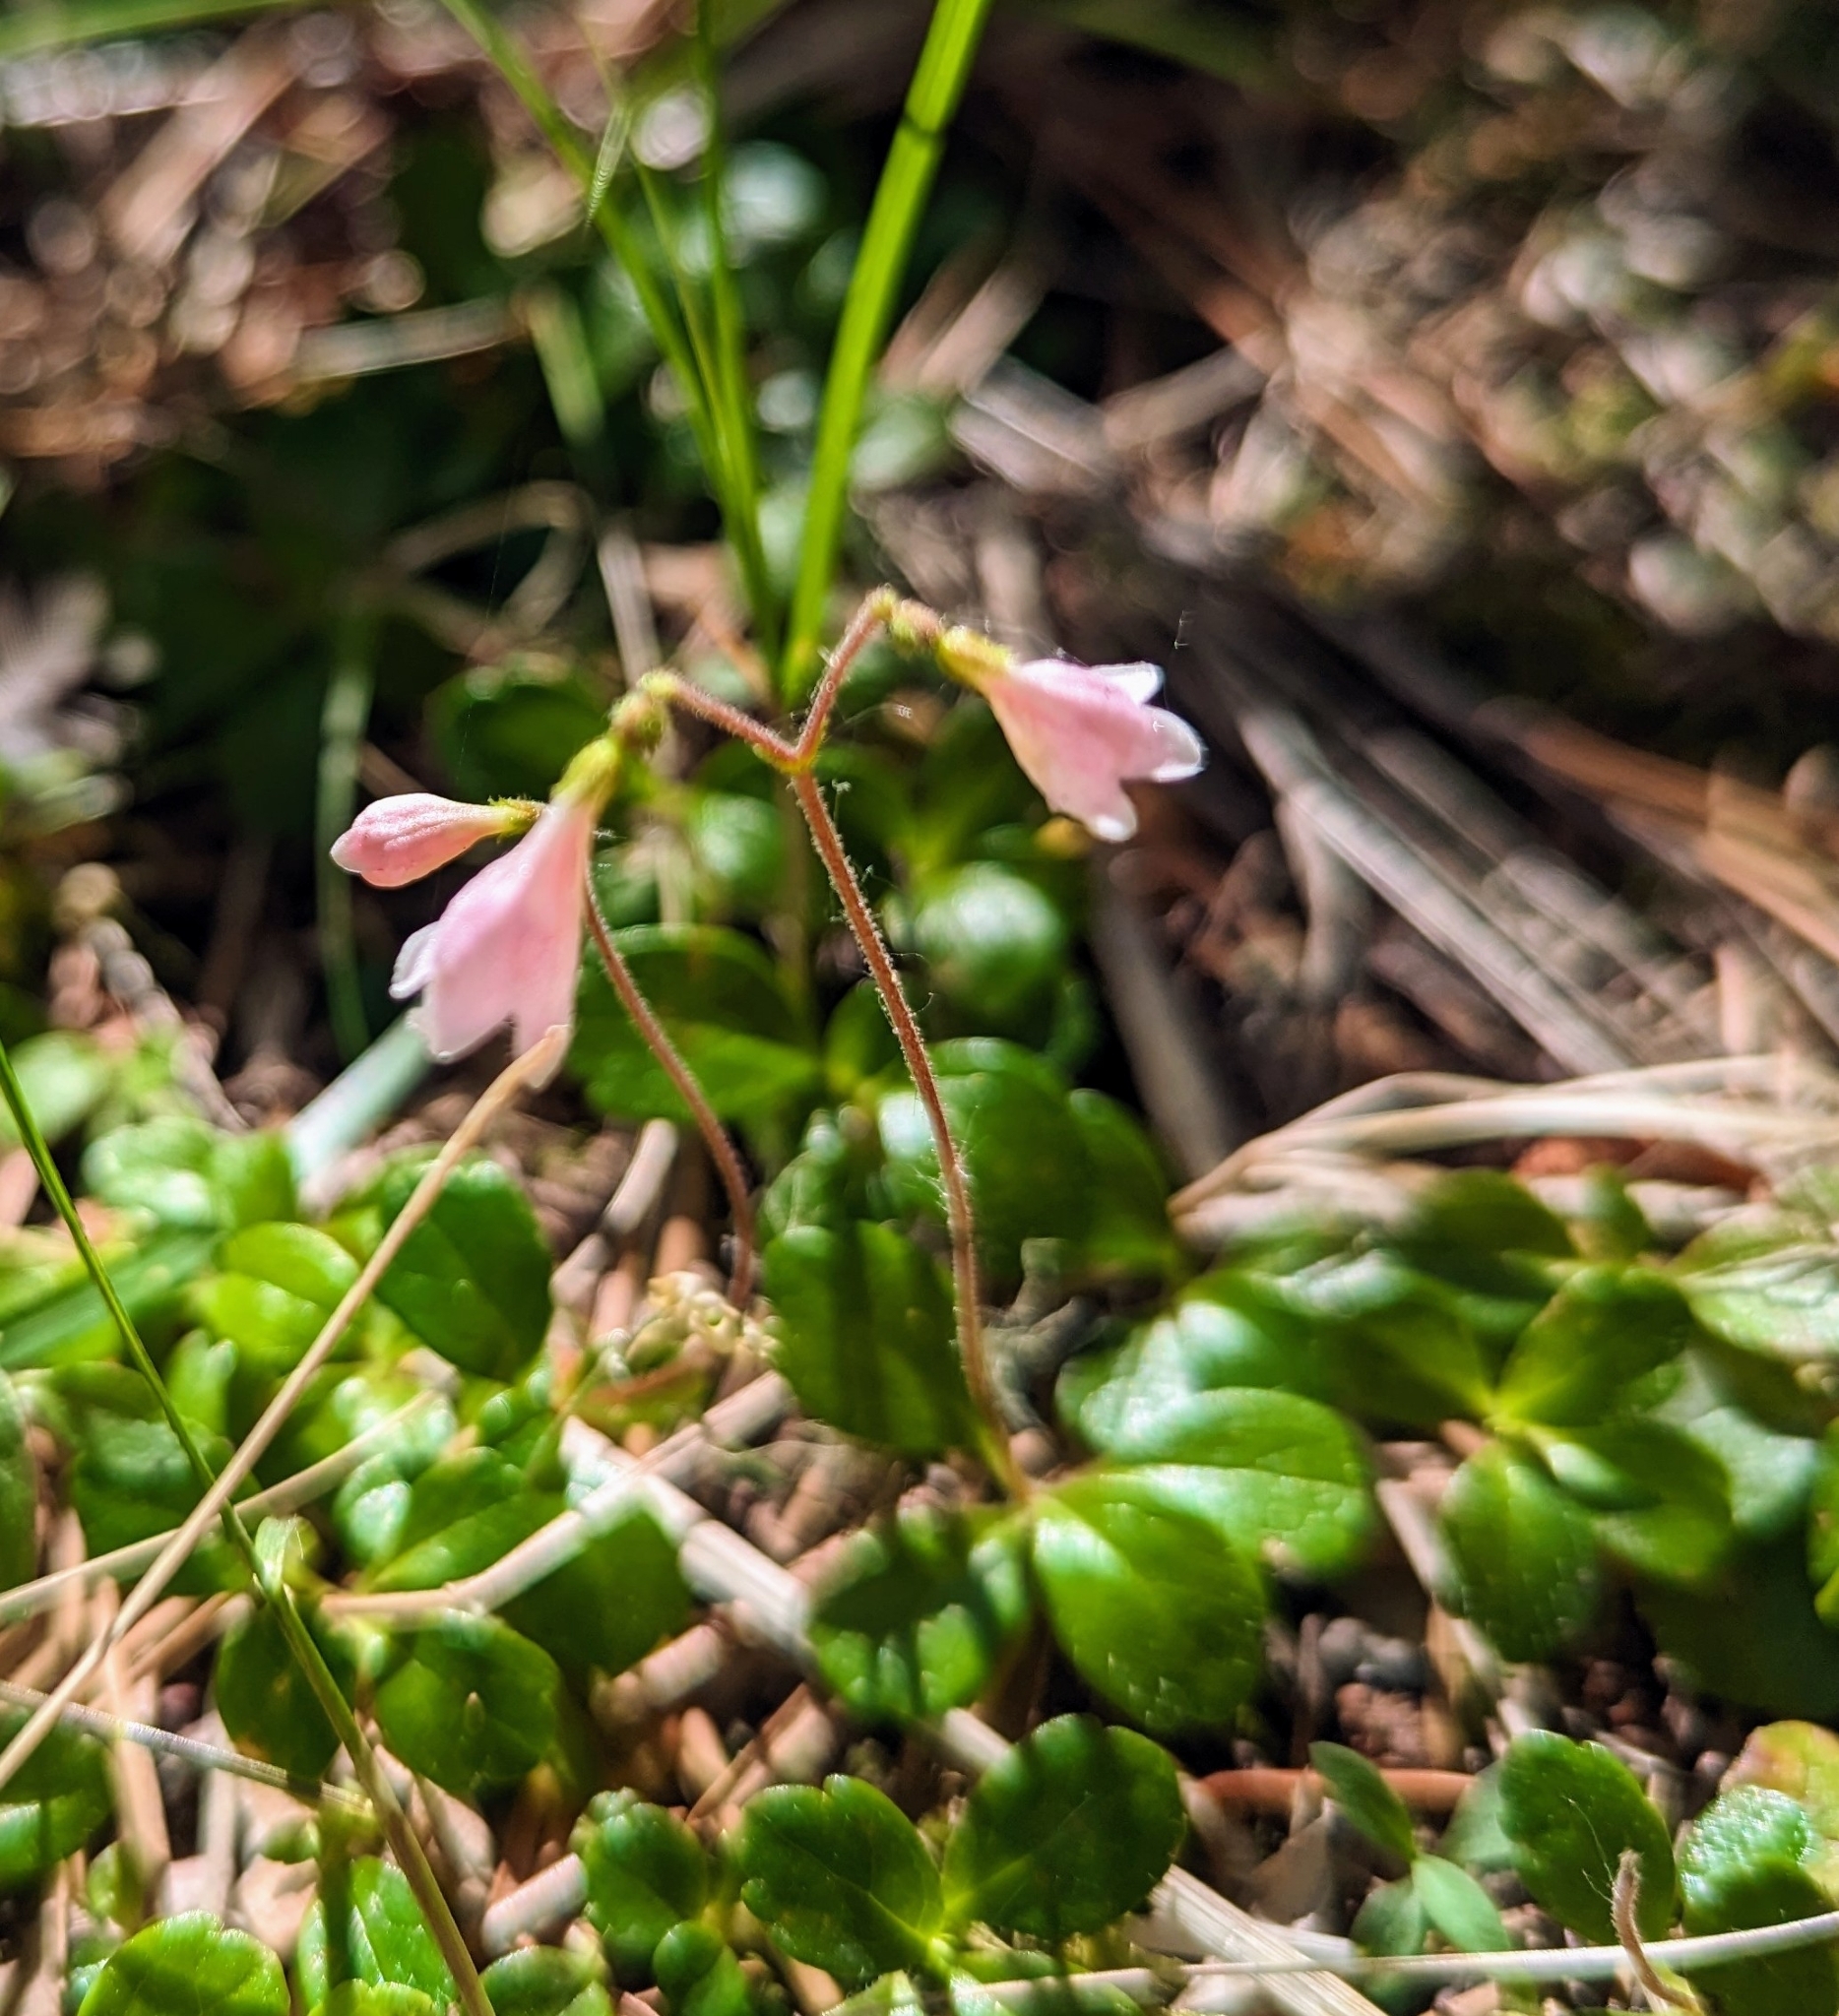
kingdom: Plantae
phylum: Tracheophyta
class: Magnoliopsida
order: Dipsacales
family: Caprifoliaceae
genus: Linnaea
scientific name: Linnaea borealis
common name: Twinflower
